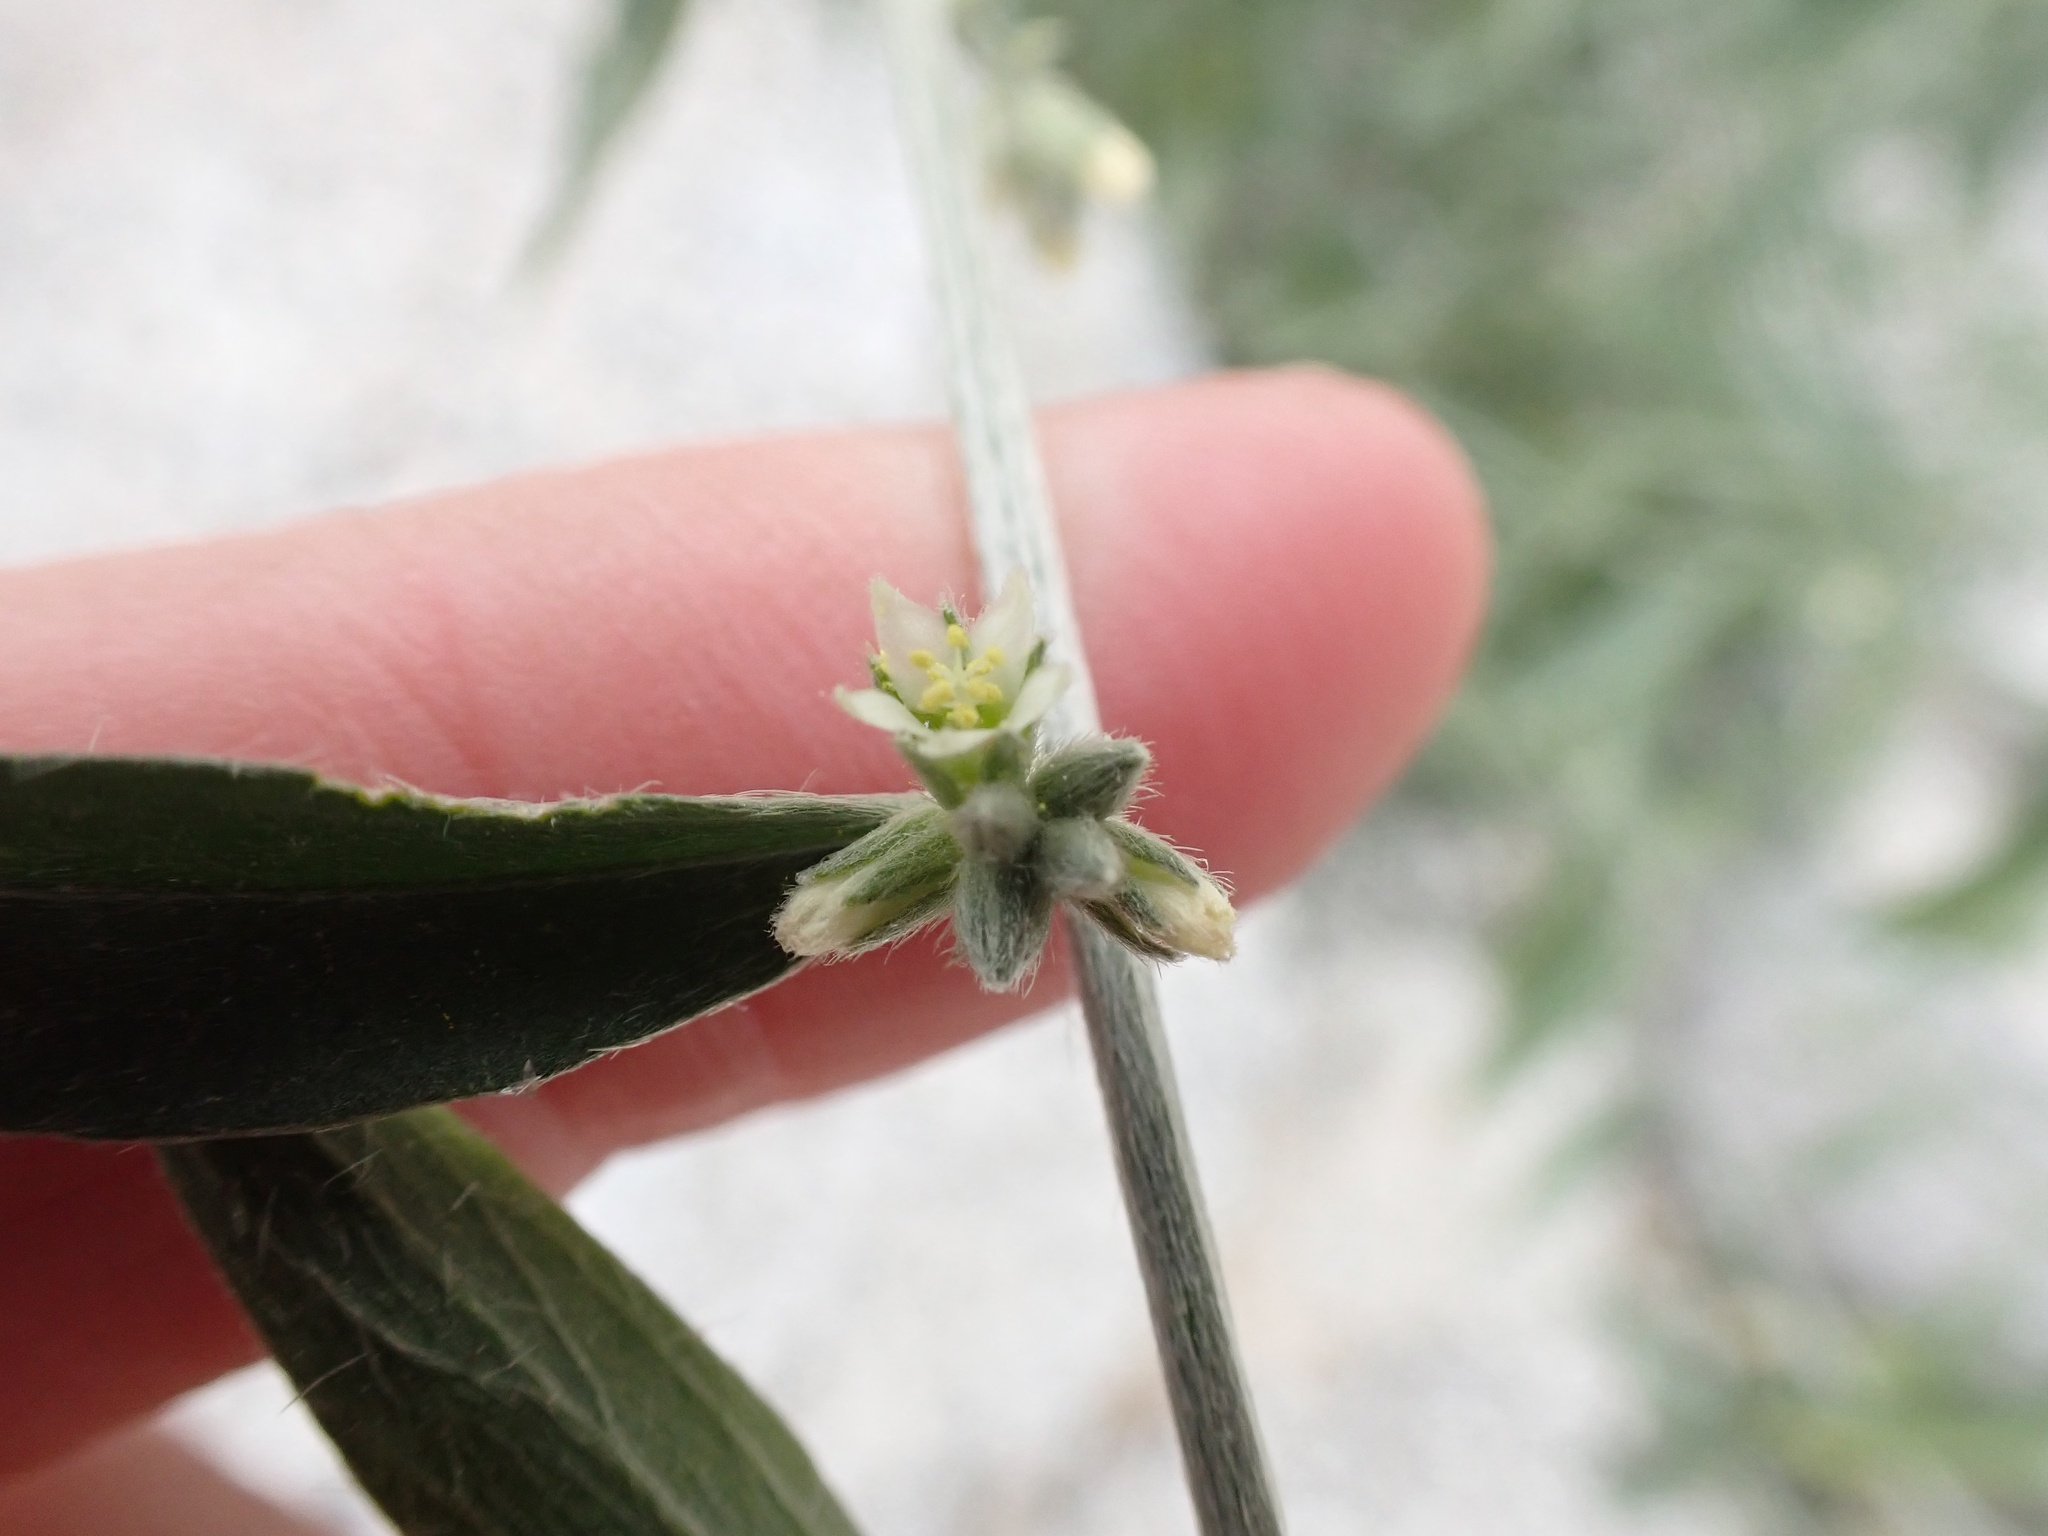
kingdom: Plantae
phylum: Tracheophyta
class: Magnoliopsida
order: Malpighiales
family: Euphorbiaceae
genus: Ditaxis
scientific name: Ditaxis lanceolata
